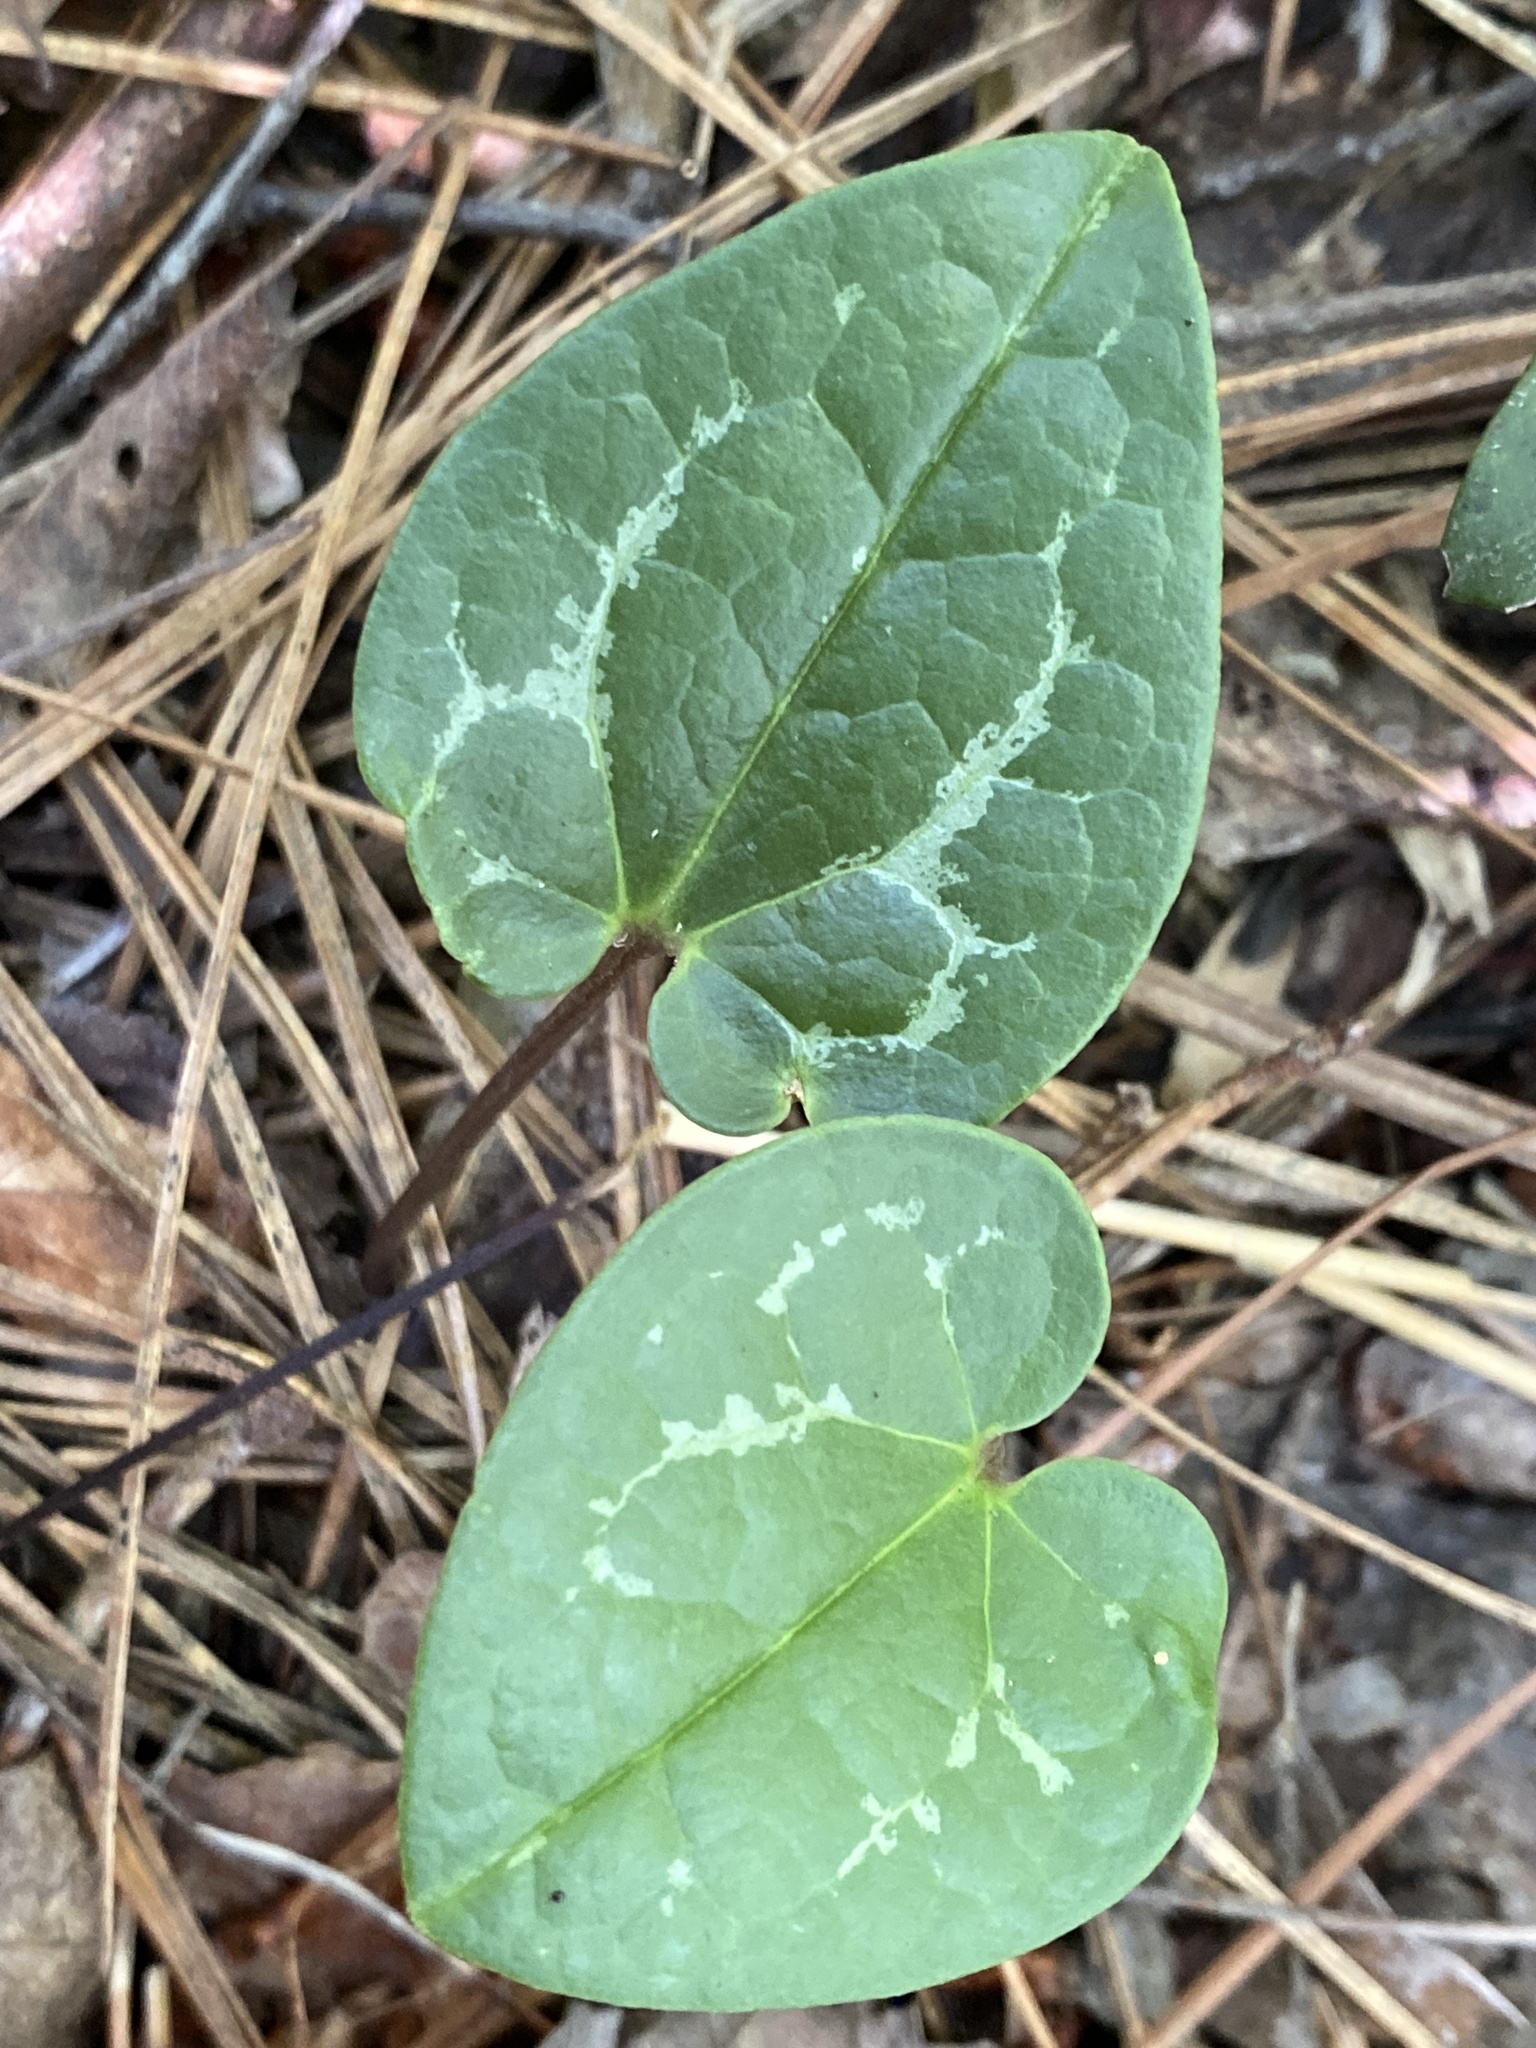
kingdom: Plantae
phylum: Tracheophyta
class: Magnoliopsida
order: Piperales
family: Aristolochiaceae
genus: Hexastylis
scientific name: Hexastylis sorriei
